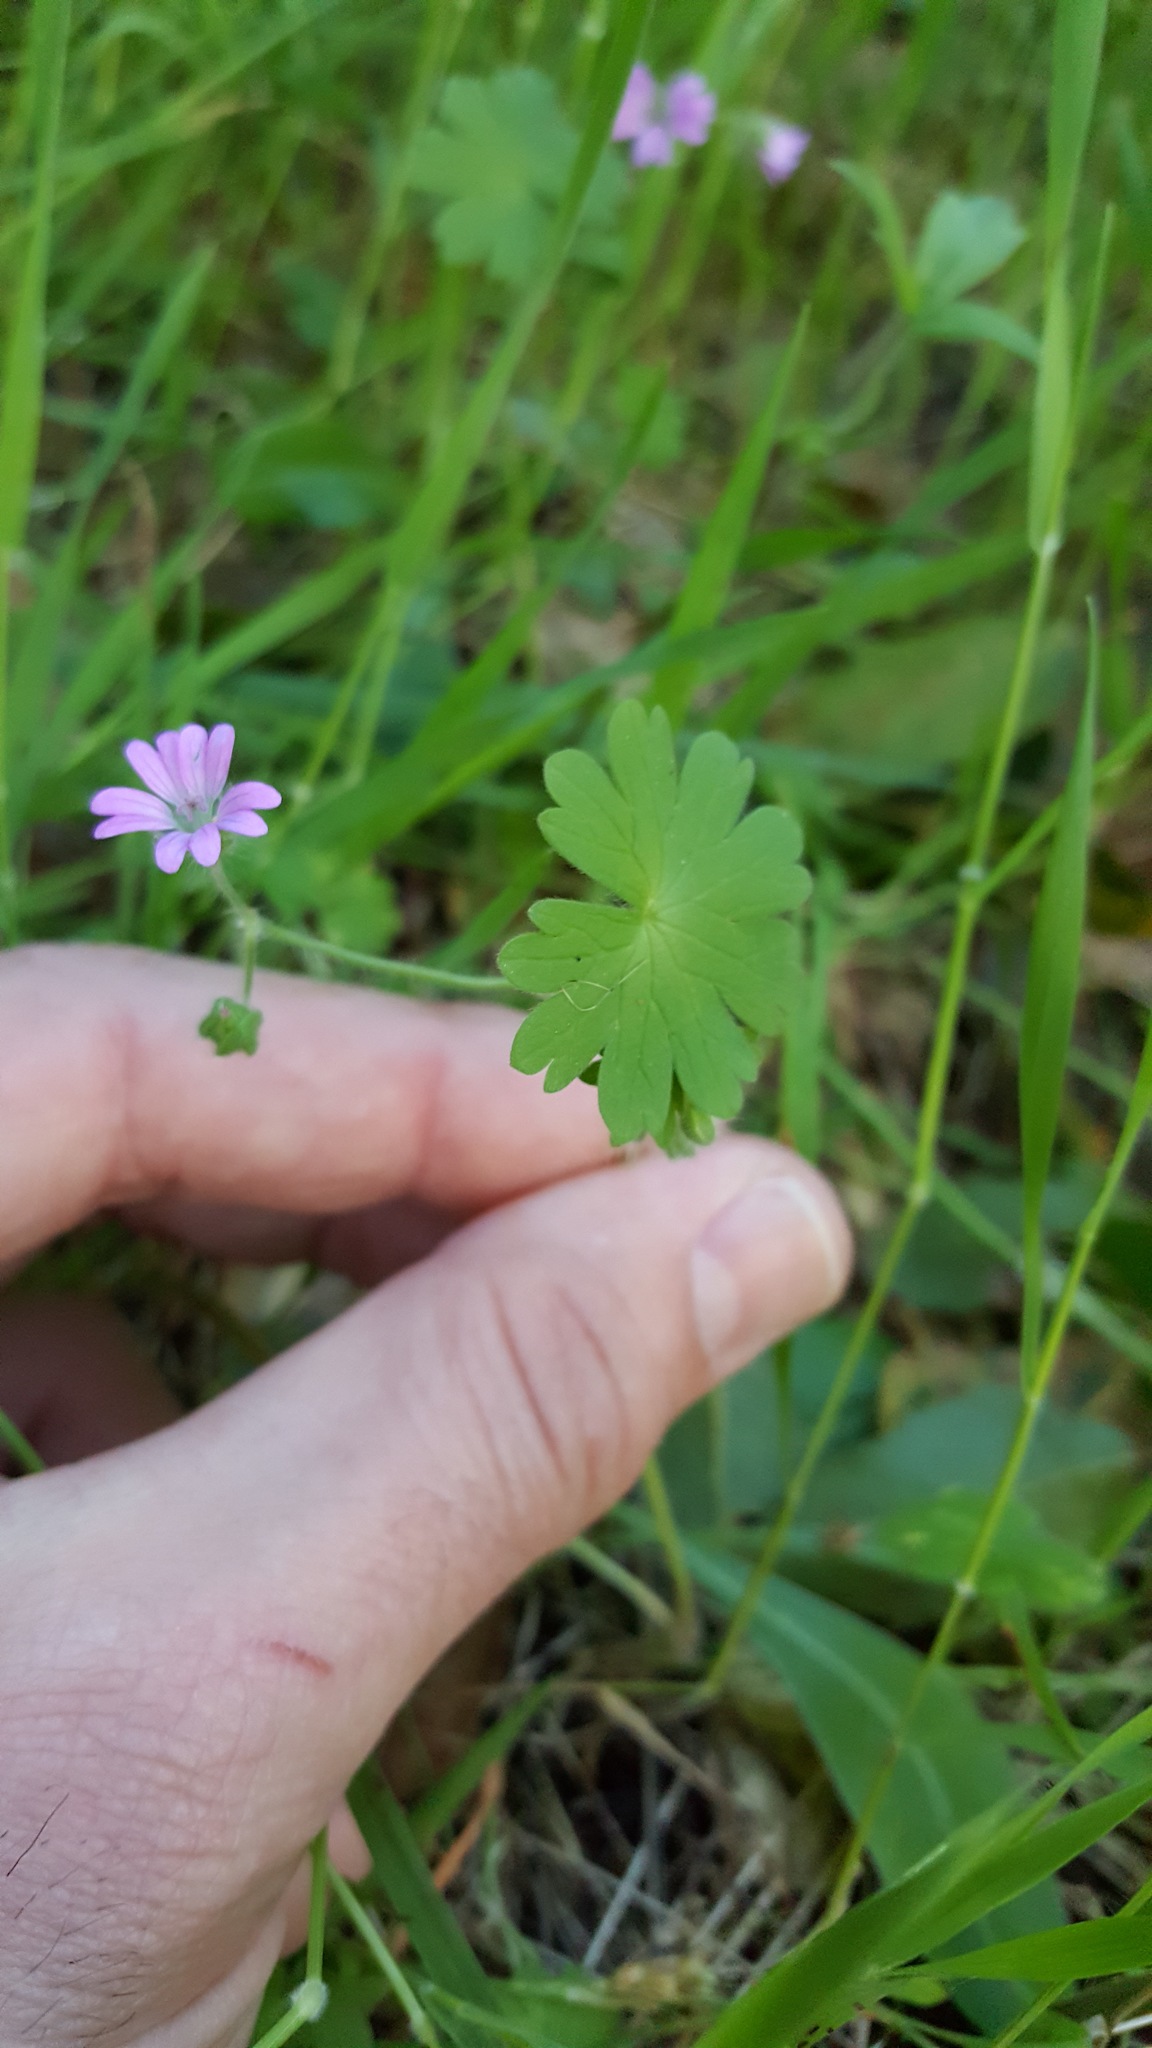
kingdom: Plantae
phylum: Tracheophyta
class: Magnoliopsida
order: Geraniales
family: Geraniaceae
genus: Geranium
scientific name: Geranium molle
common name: Dove's-foot crane's-bill
